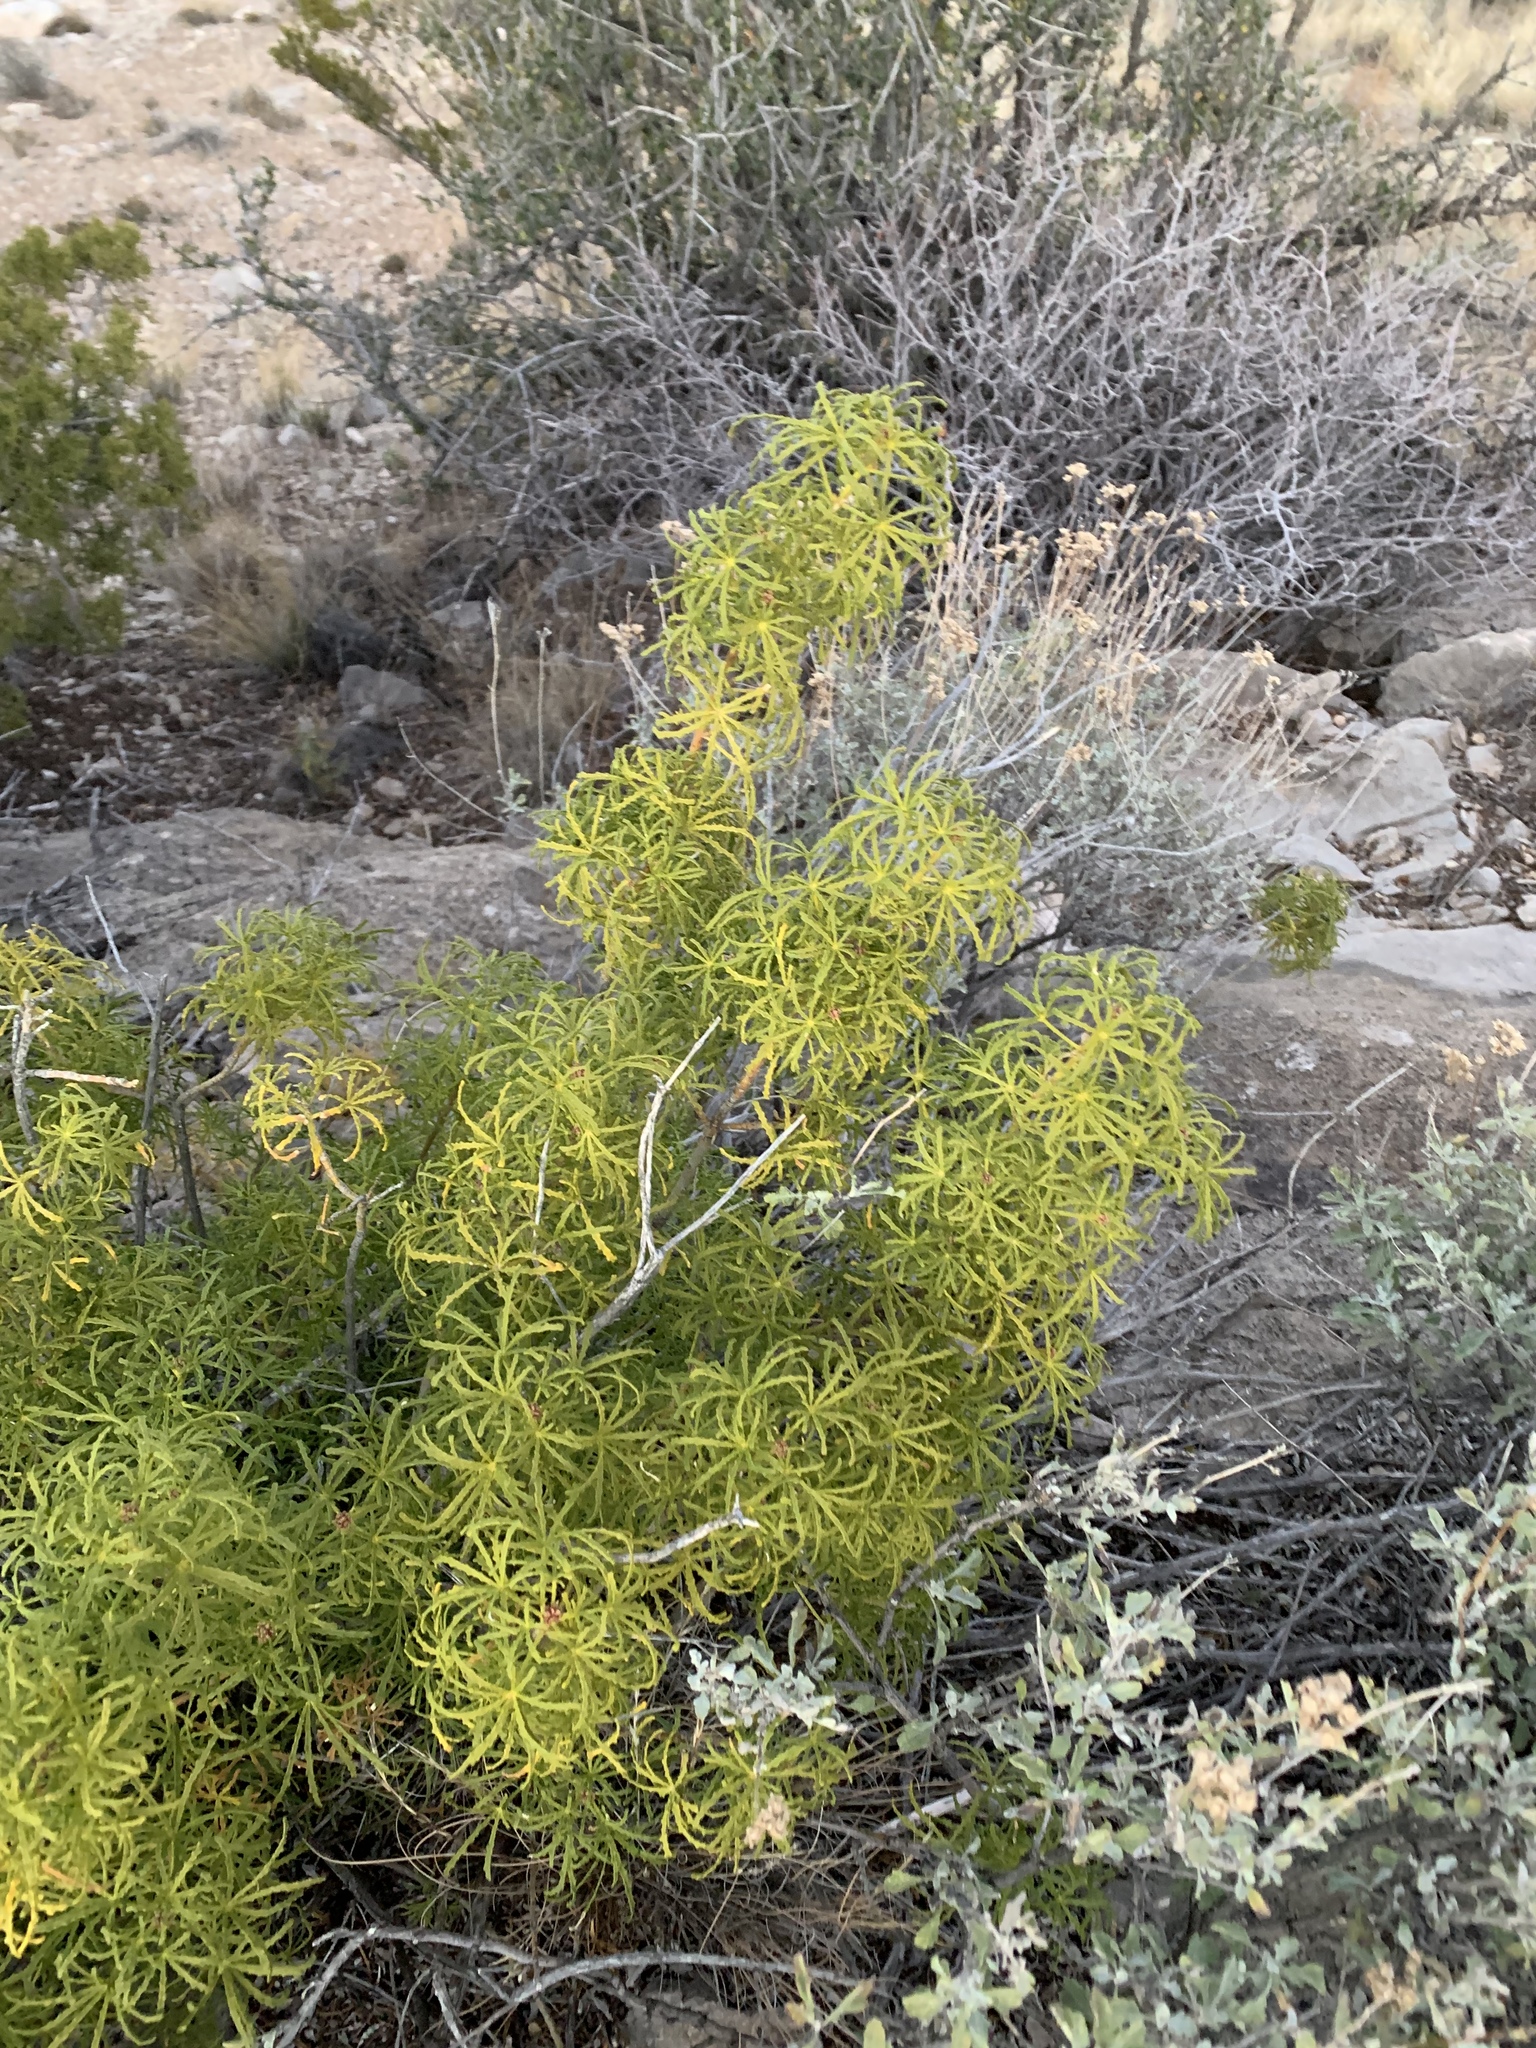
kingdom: Plantae
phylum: Tracheophyta
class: Magnoliopsida
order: Sapindales
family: Rutaceae
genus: Choisya
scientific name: Choisya dumosa
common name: Mexican-orange
